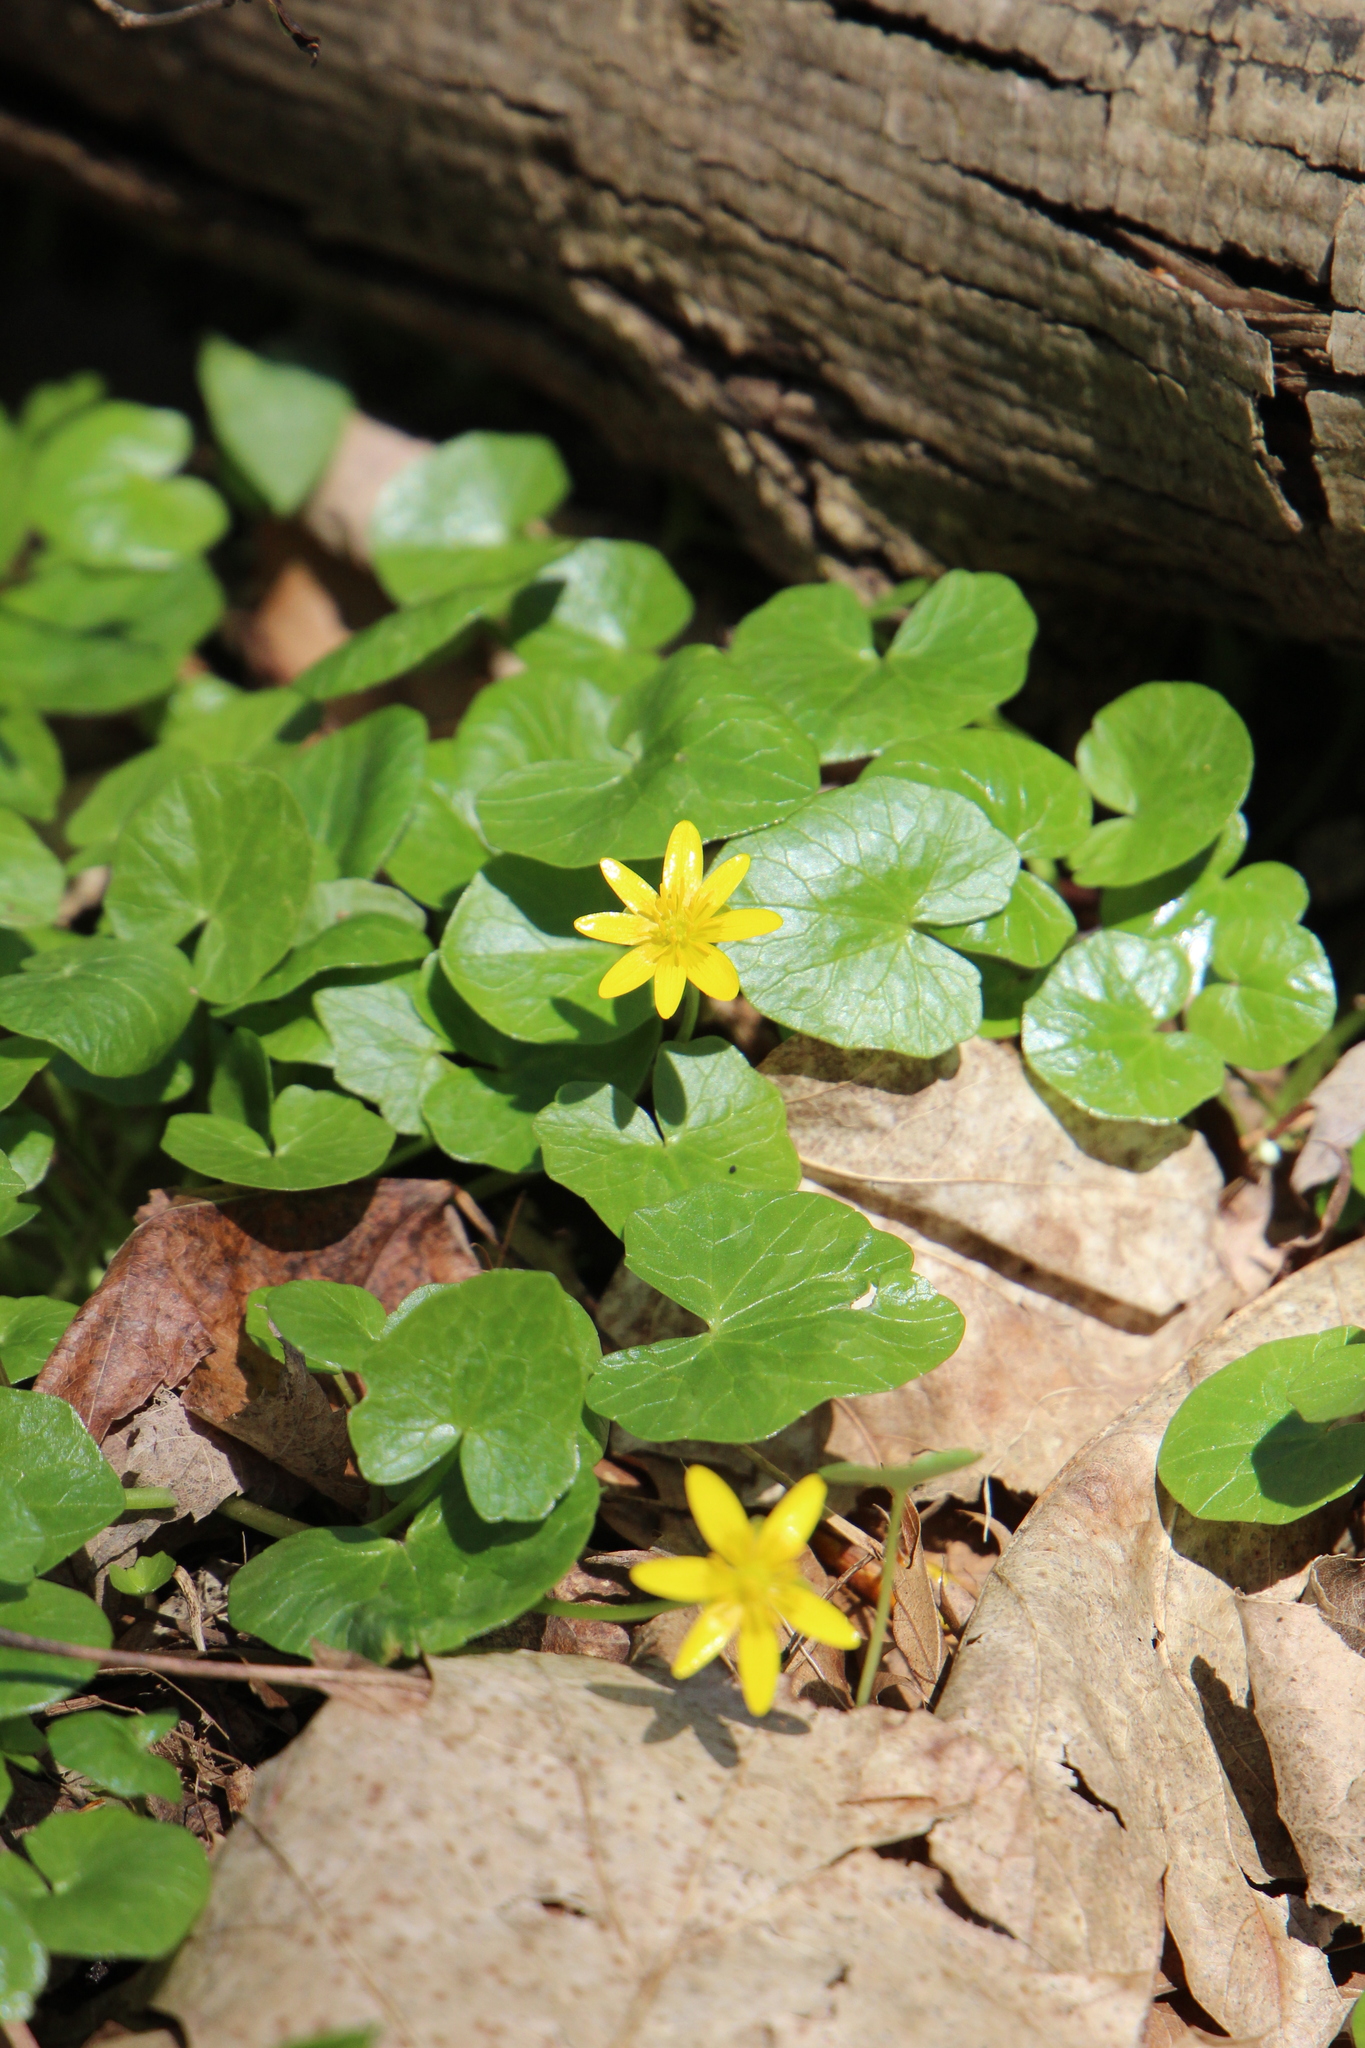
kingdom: Plantae
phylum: Tracheophyta
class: Magnoliopsida
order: Ranunculales
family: Ranunculaceae
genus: Ficaria
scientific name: Ficaria verna
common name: Lesser celandine
